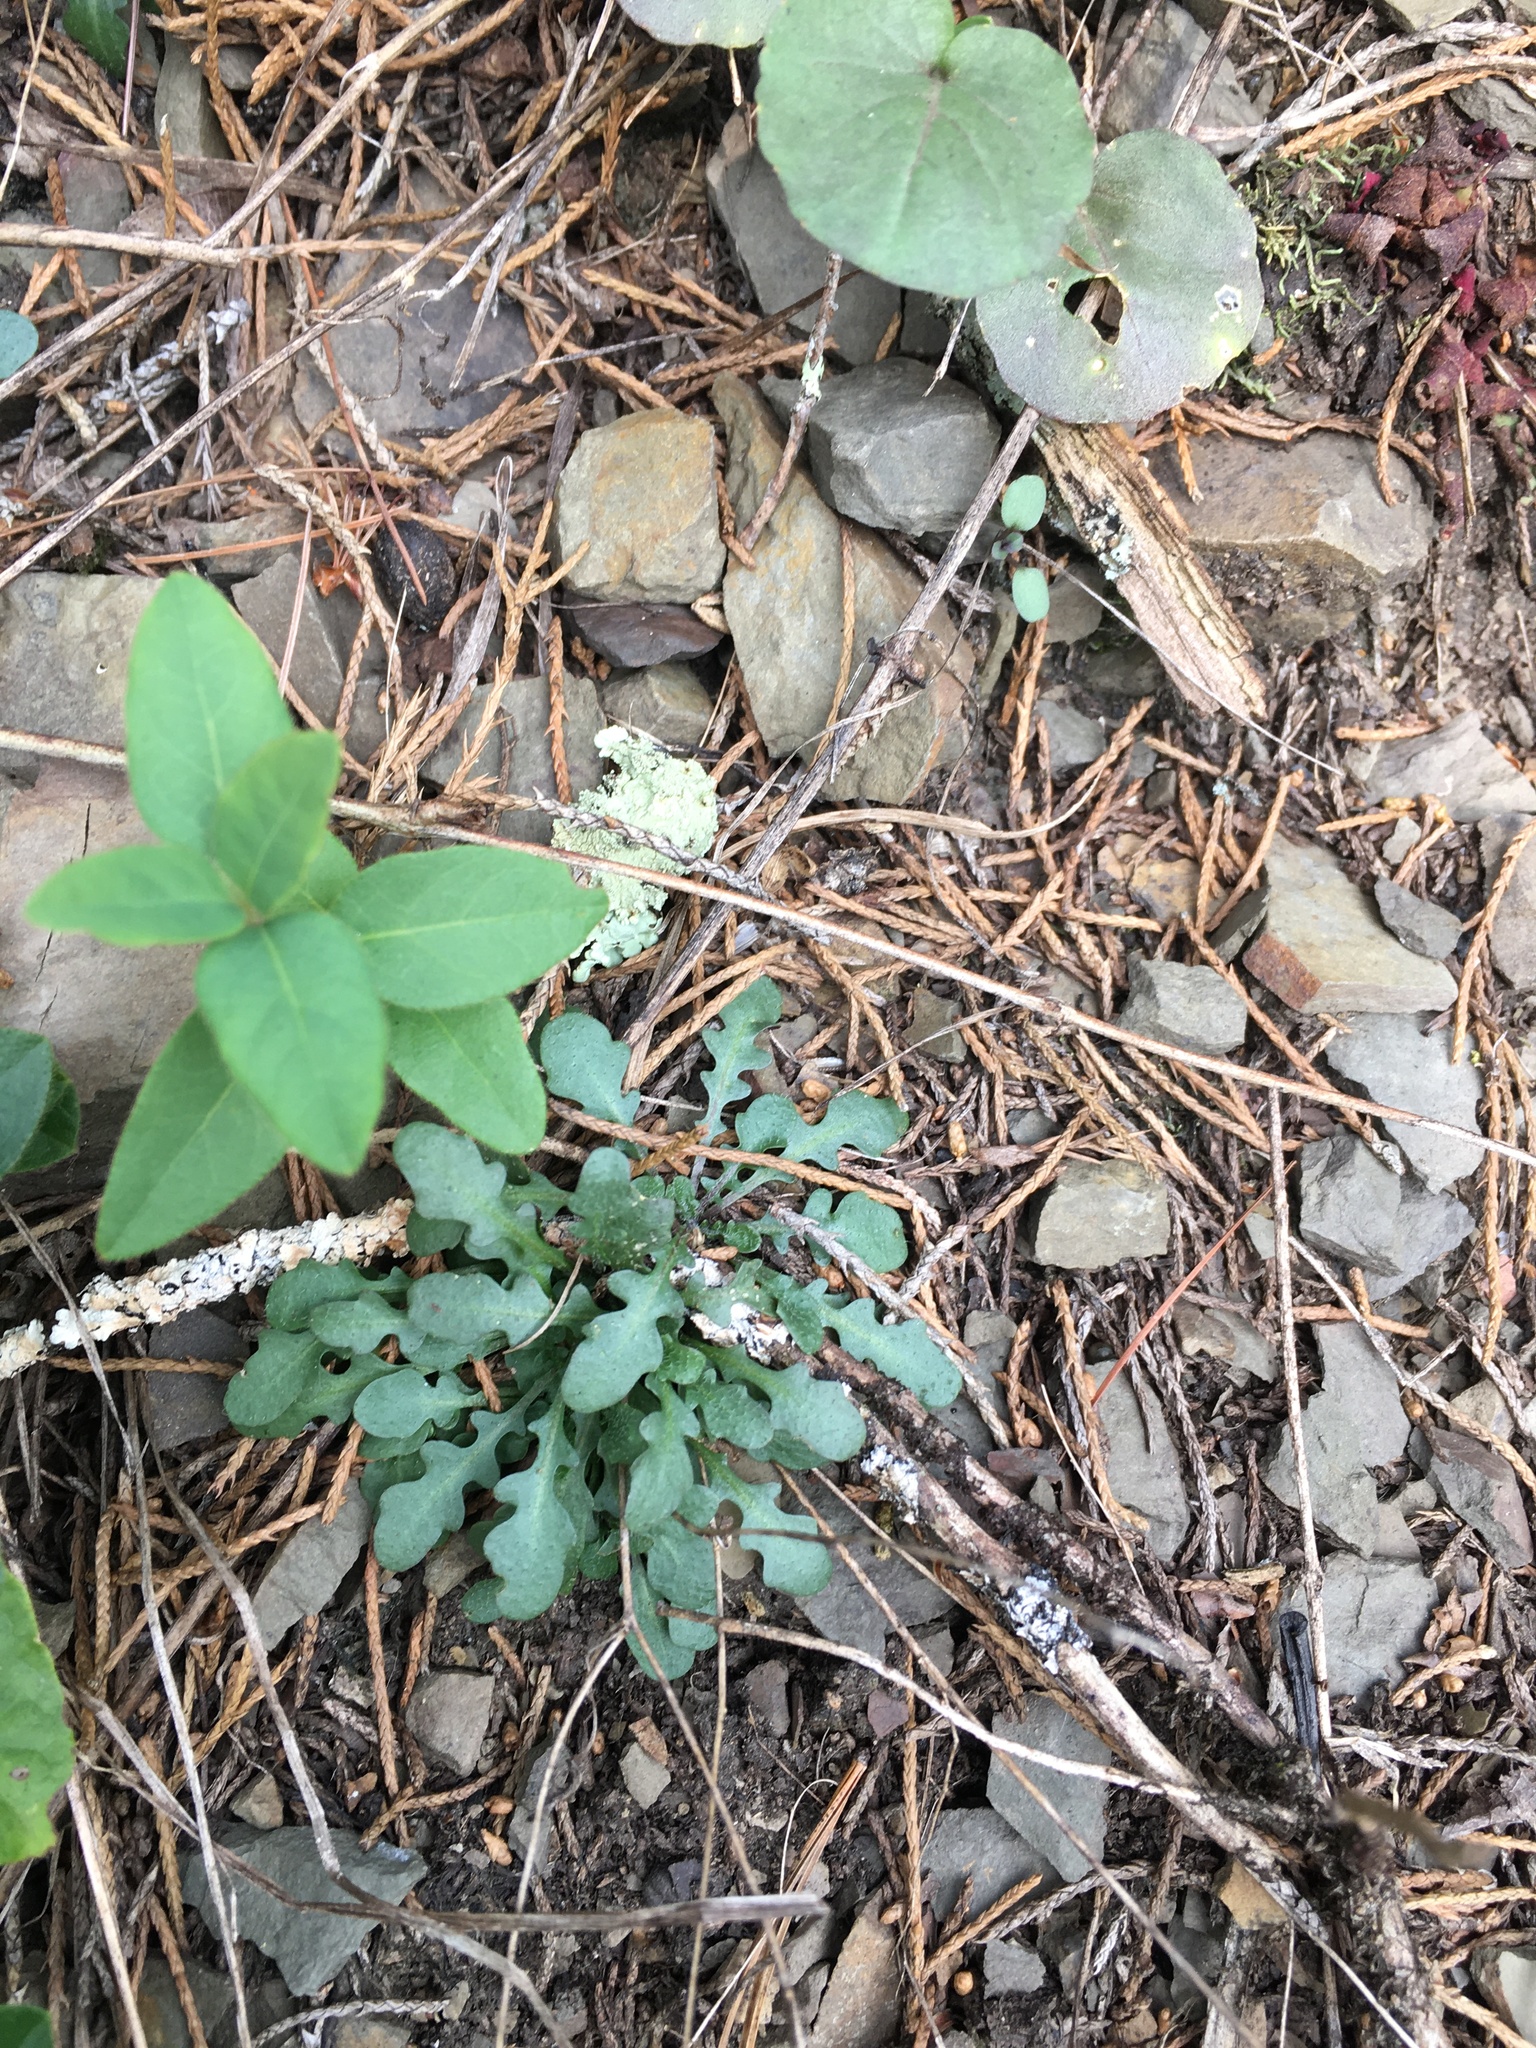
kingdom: Plantae
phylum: Tracheophyta
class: Magnoliopsida
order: Brassicales
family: Brassicaceae
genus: Arabidopsis
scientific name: Arabidopsis lyrata
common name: Lyrate rockcress
